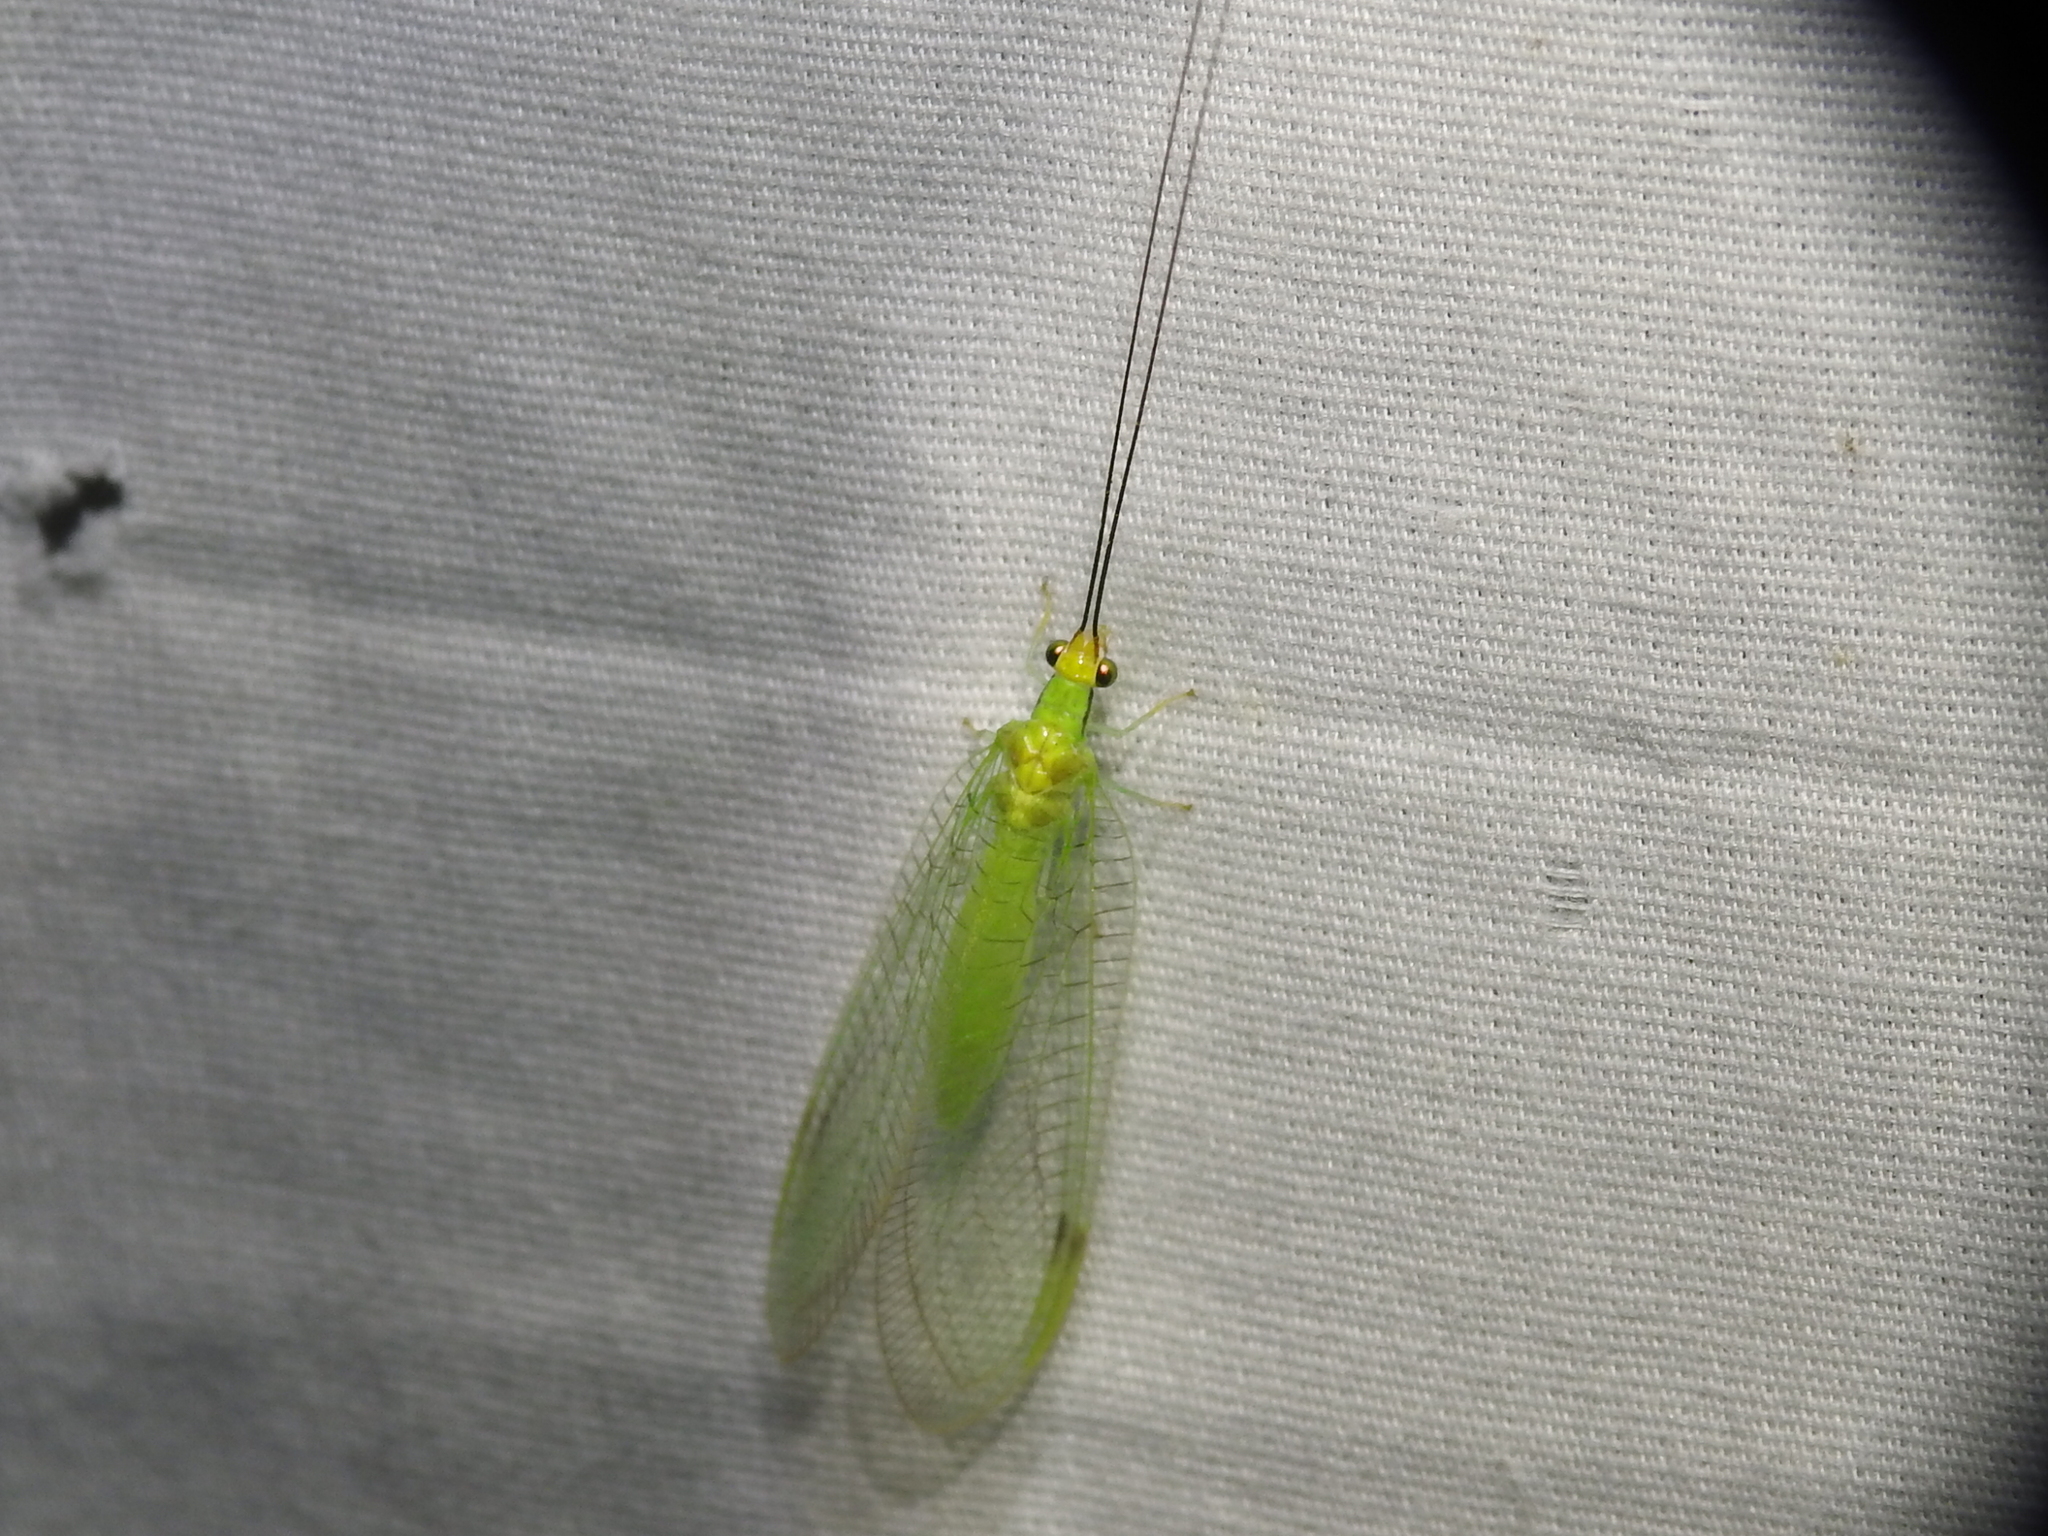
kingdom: Animalia
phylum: Arthropoda
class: Insecta
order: Neuroptera
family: Chrysopidae
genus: Leucochrysa
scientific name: Leucochrysa pavida
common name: Lichen-carrying green lacewing
